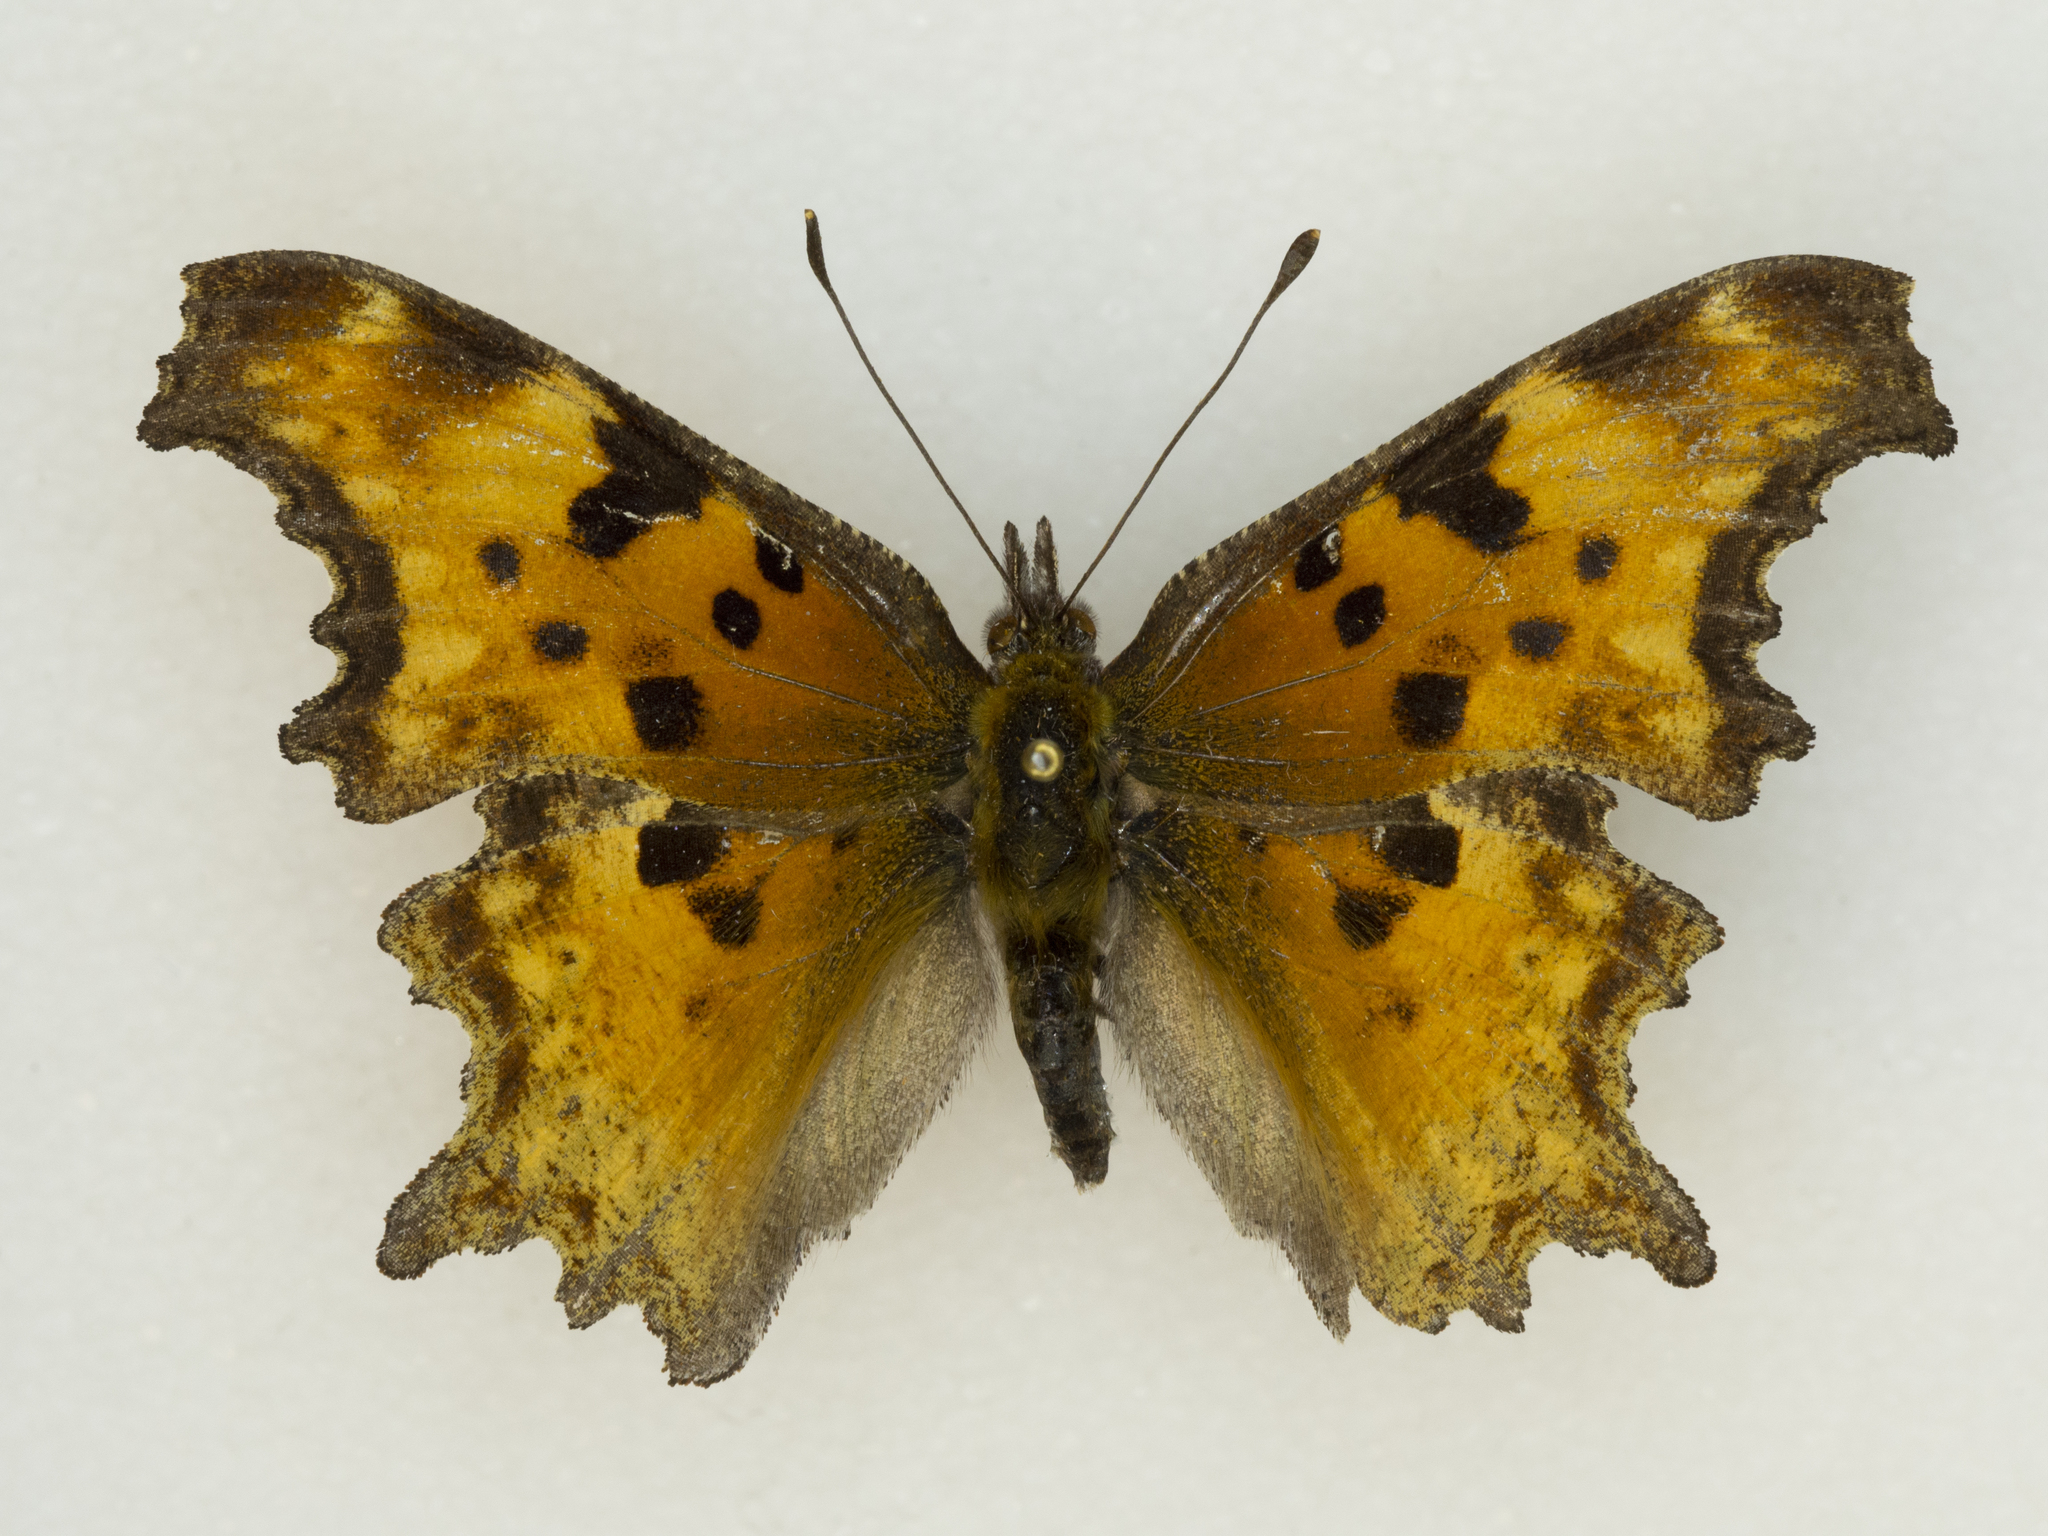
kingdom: Animalia
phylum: Arthropoda
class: Insecta
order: Lepidoptera
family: Nymphalidae
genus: Polygonia
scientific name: Polygonia gracilis
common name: Hoary comma
